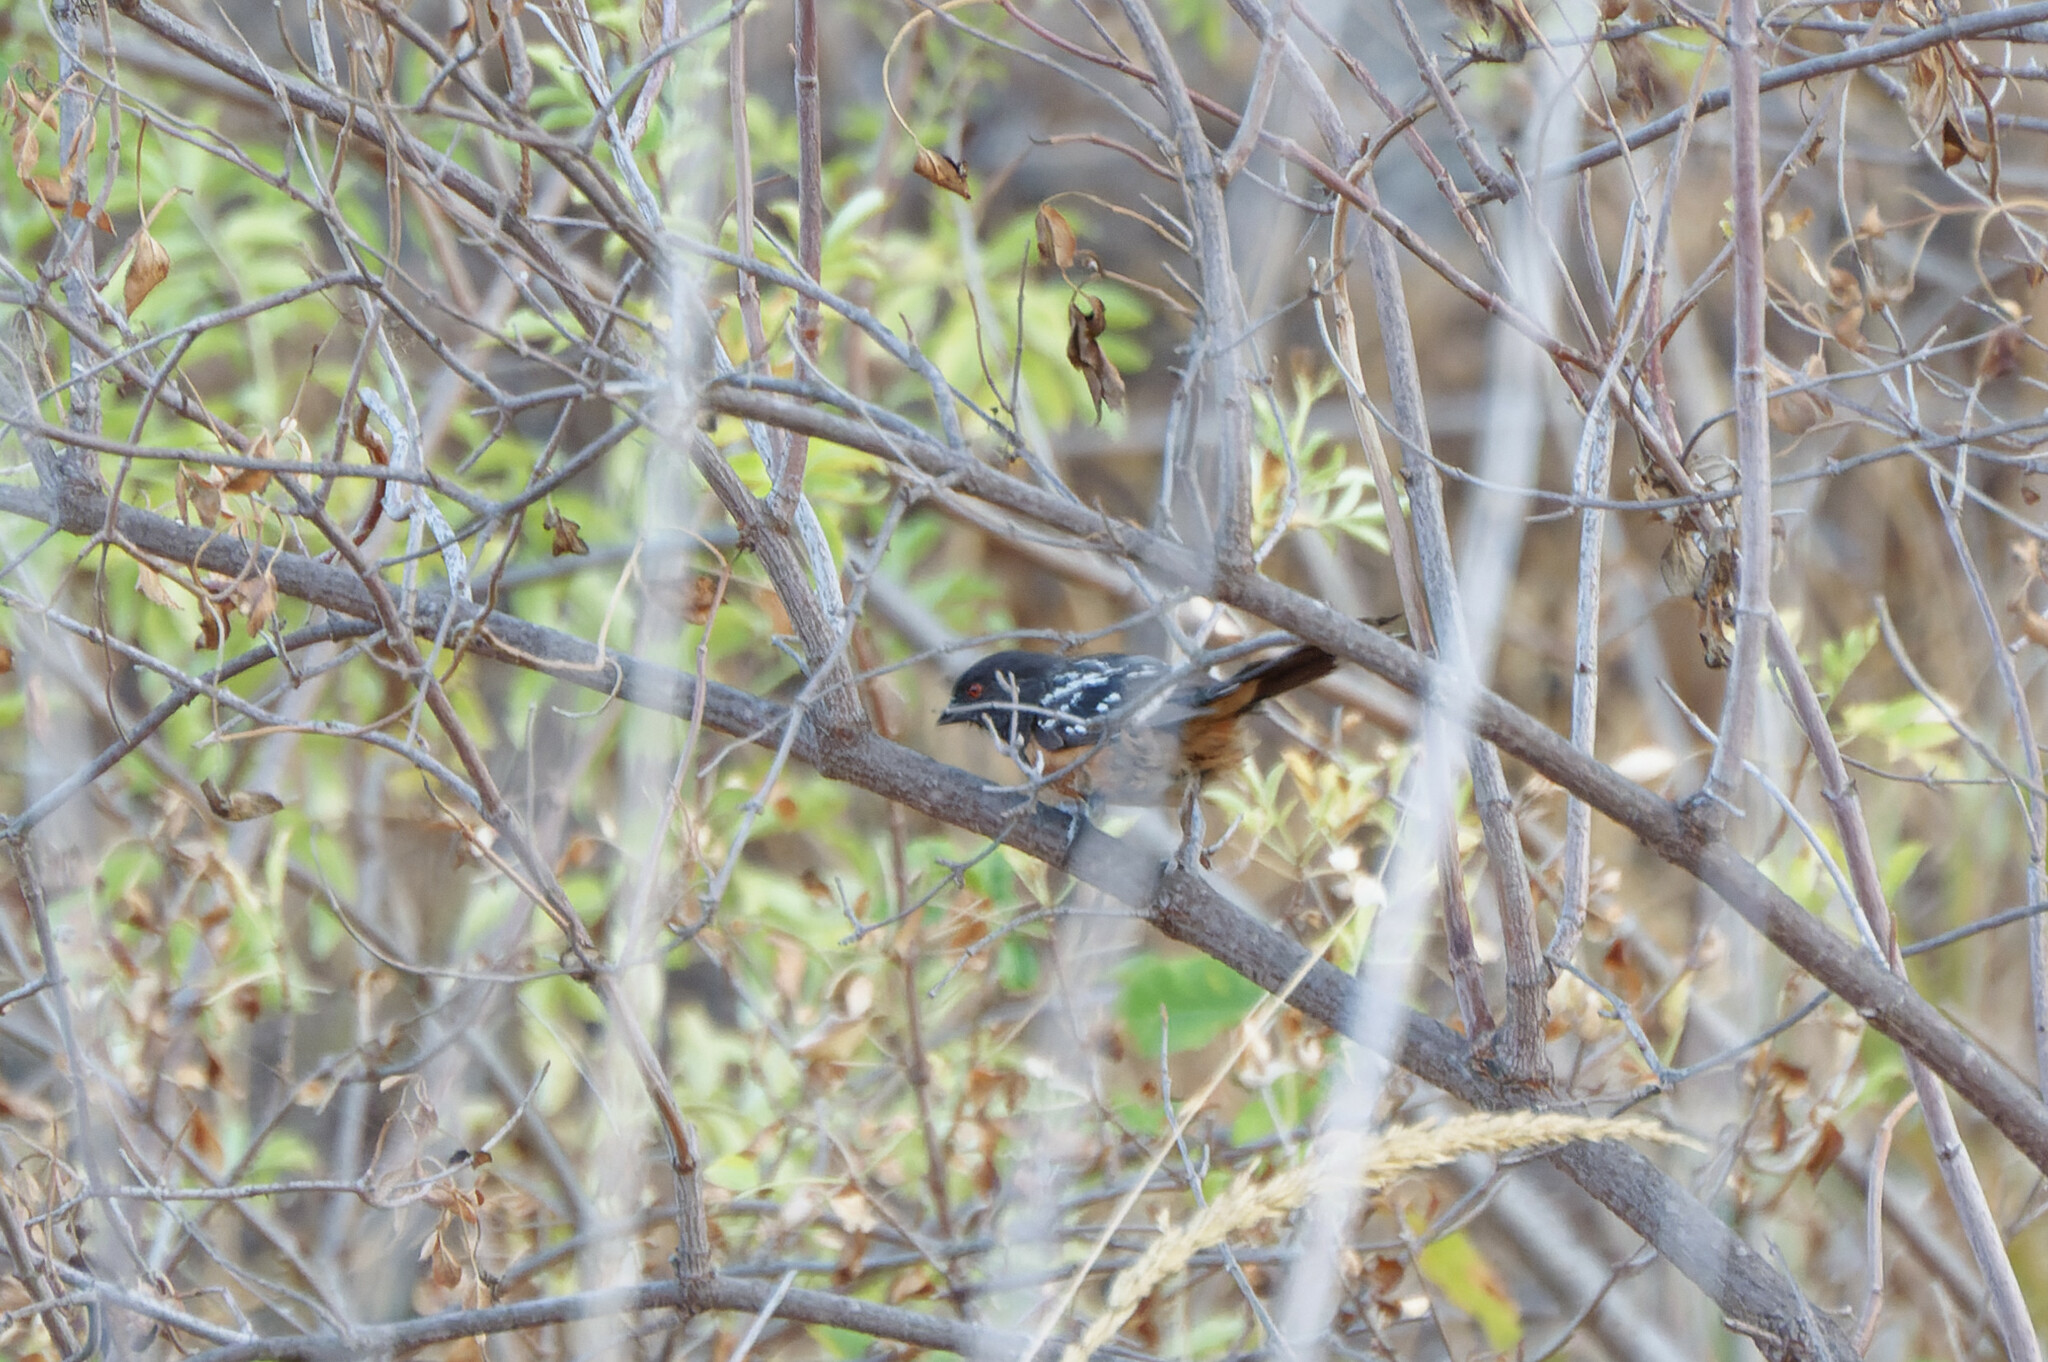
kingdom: Animalia
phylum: Chordata
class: Aves
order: Passeriformes
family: Passerellidae
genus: Pipilo
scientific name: Pipilo maculatus
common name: Spotted towhee
